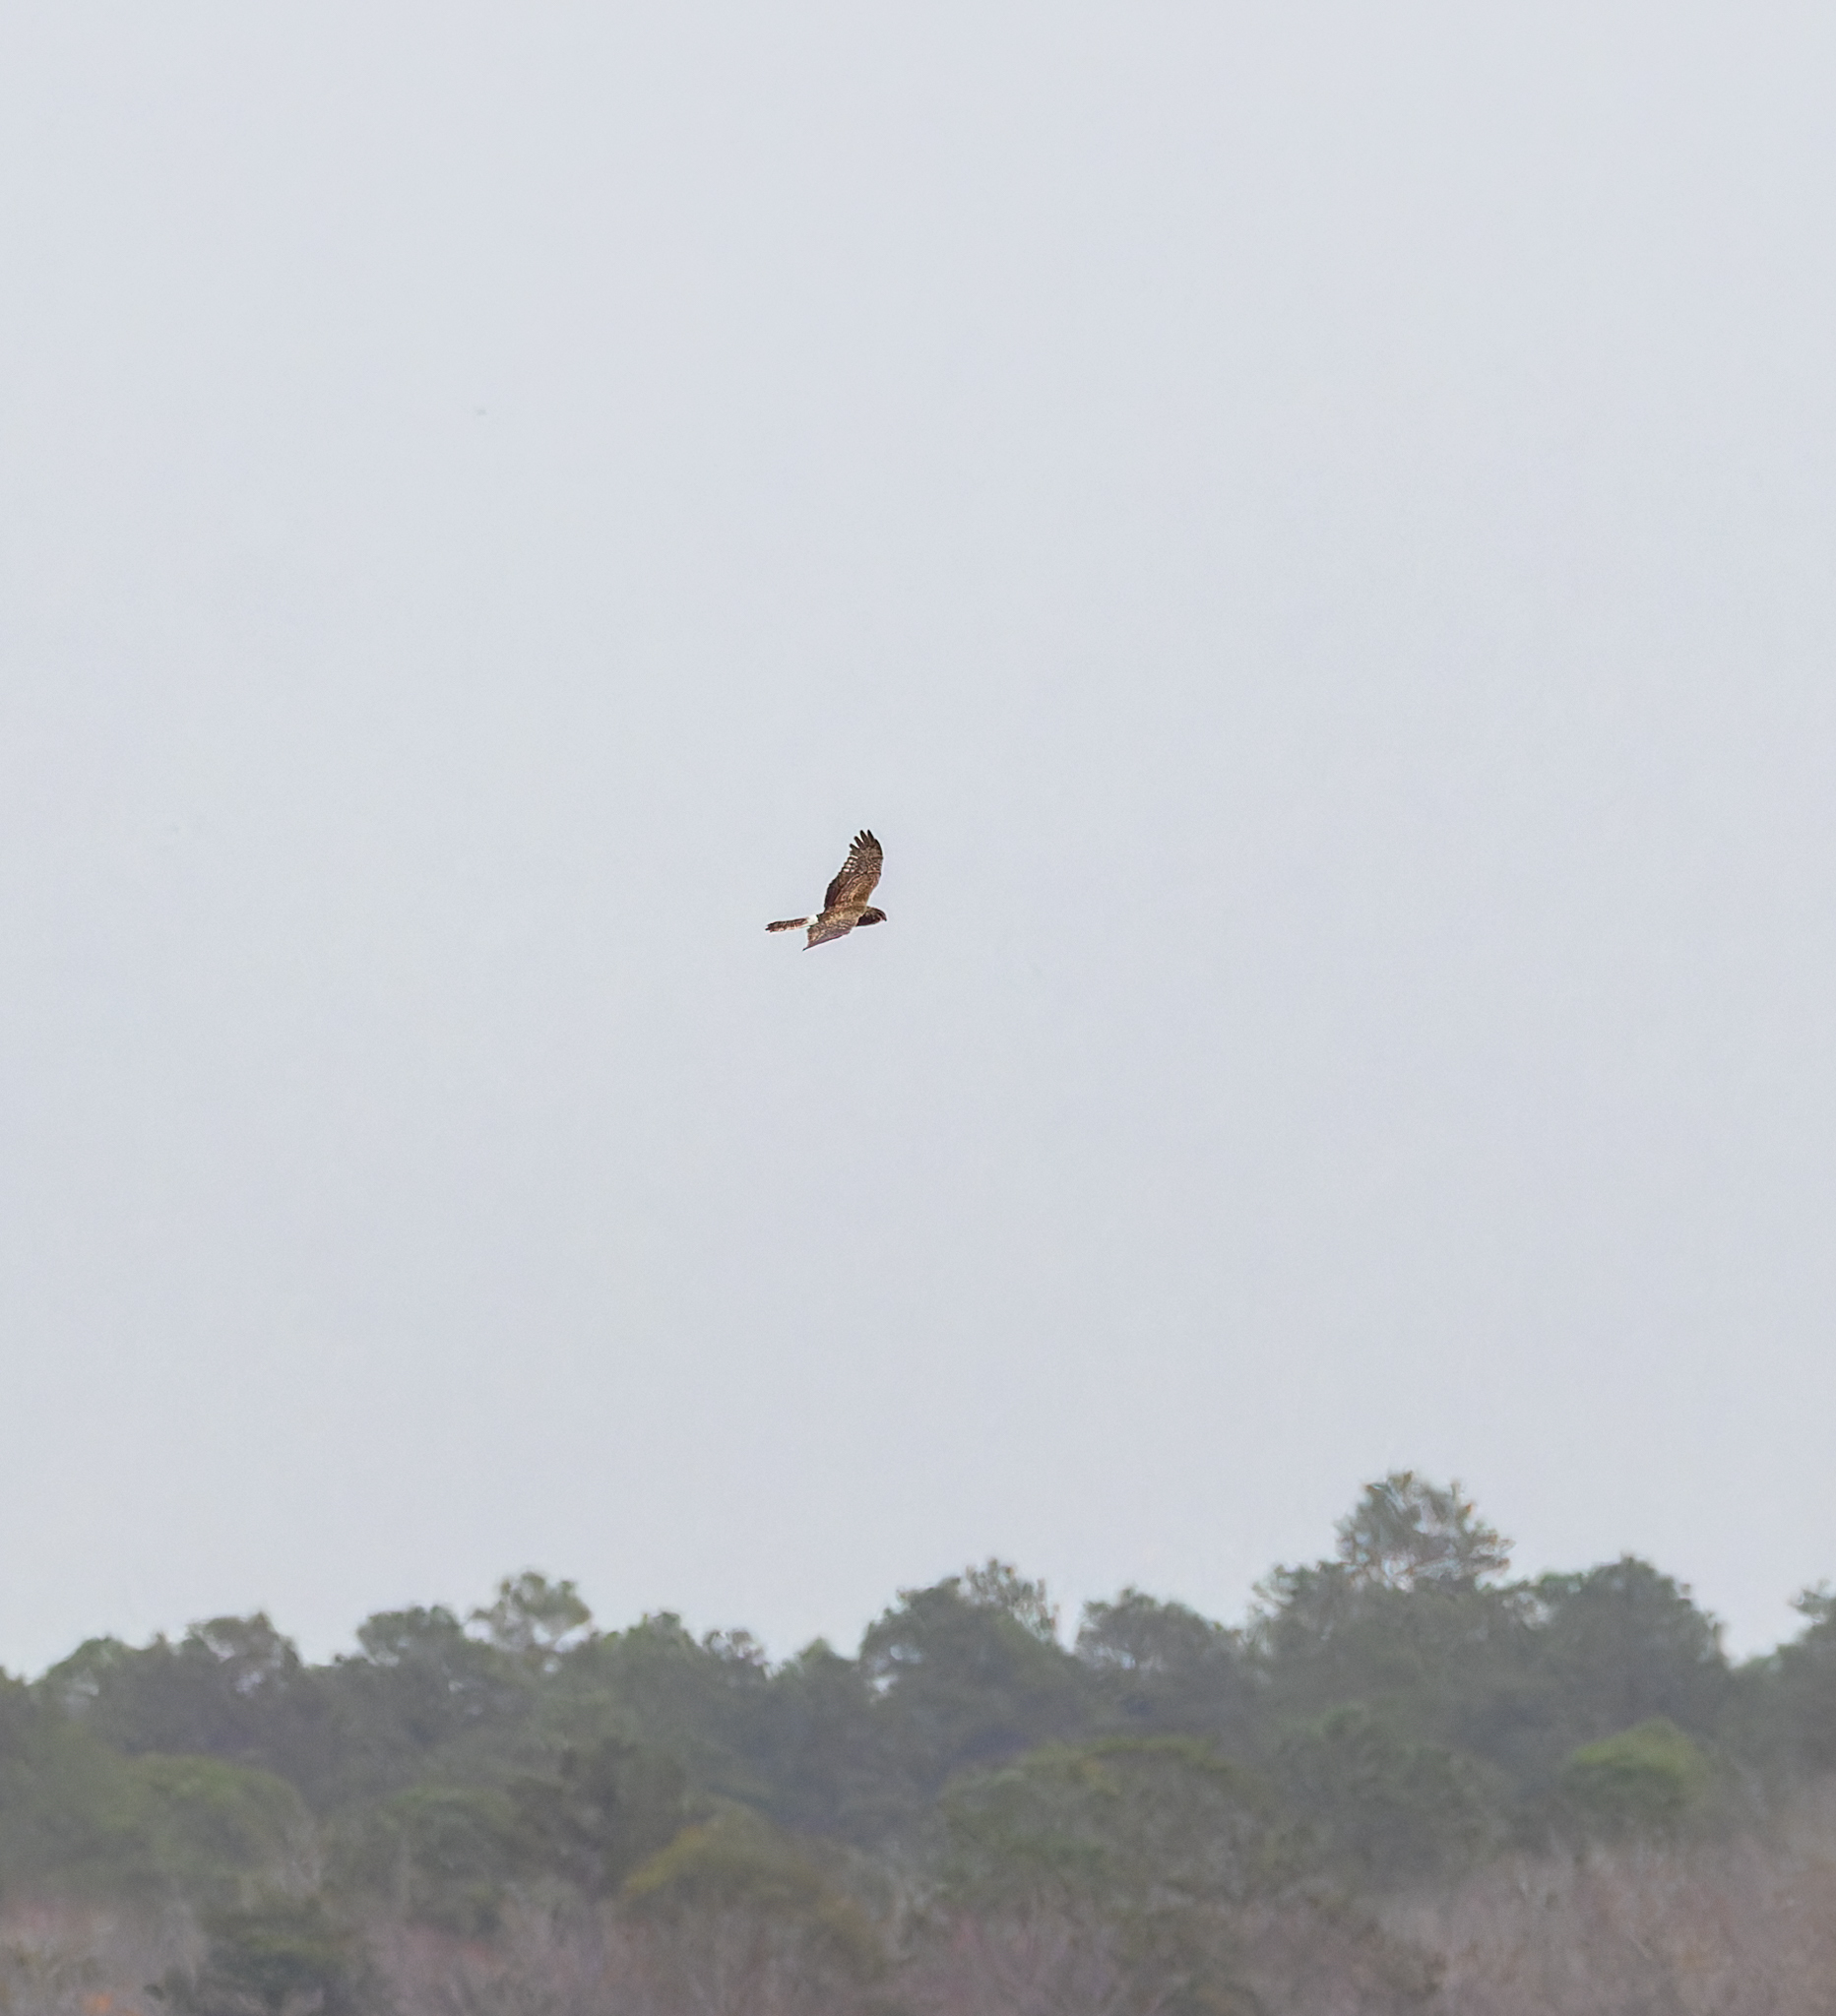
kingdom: Animalia
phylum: Chordata
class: Aves
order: Accipitriformes
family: Accipitridae
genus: Circus
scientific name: Circus cyaneus
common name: Hen harrier
